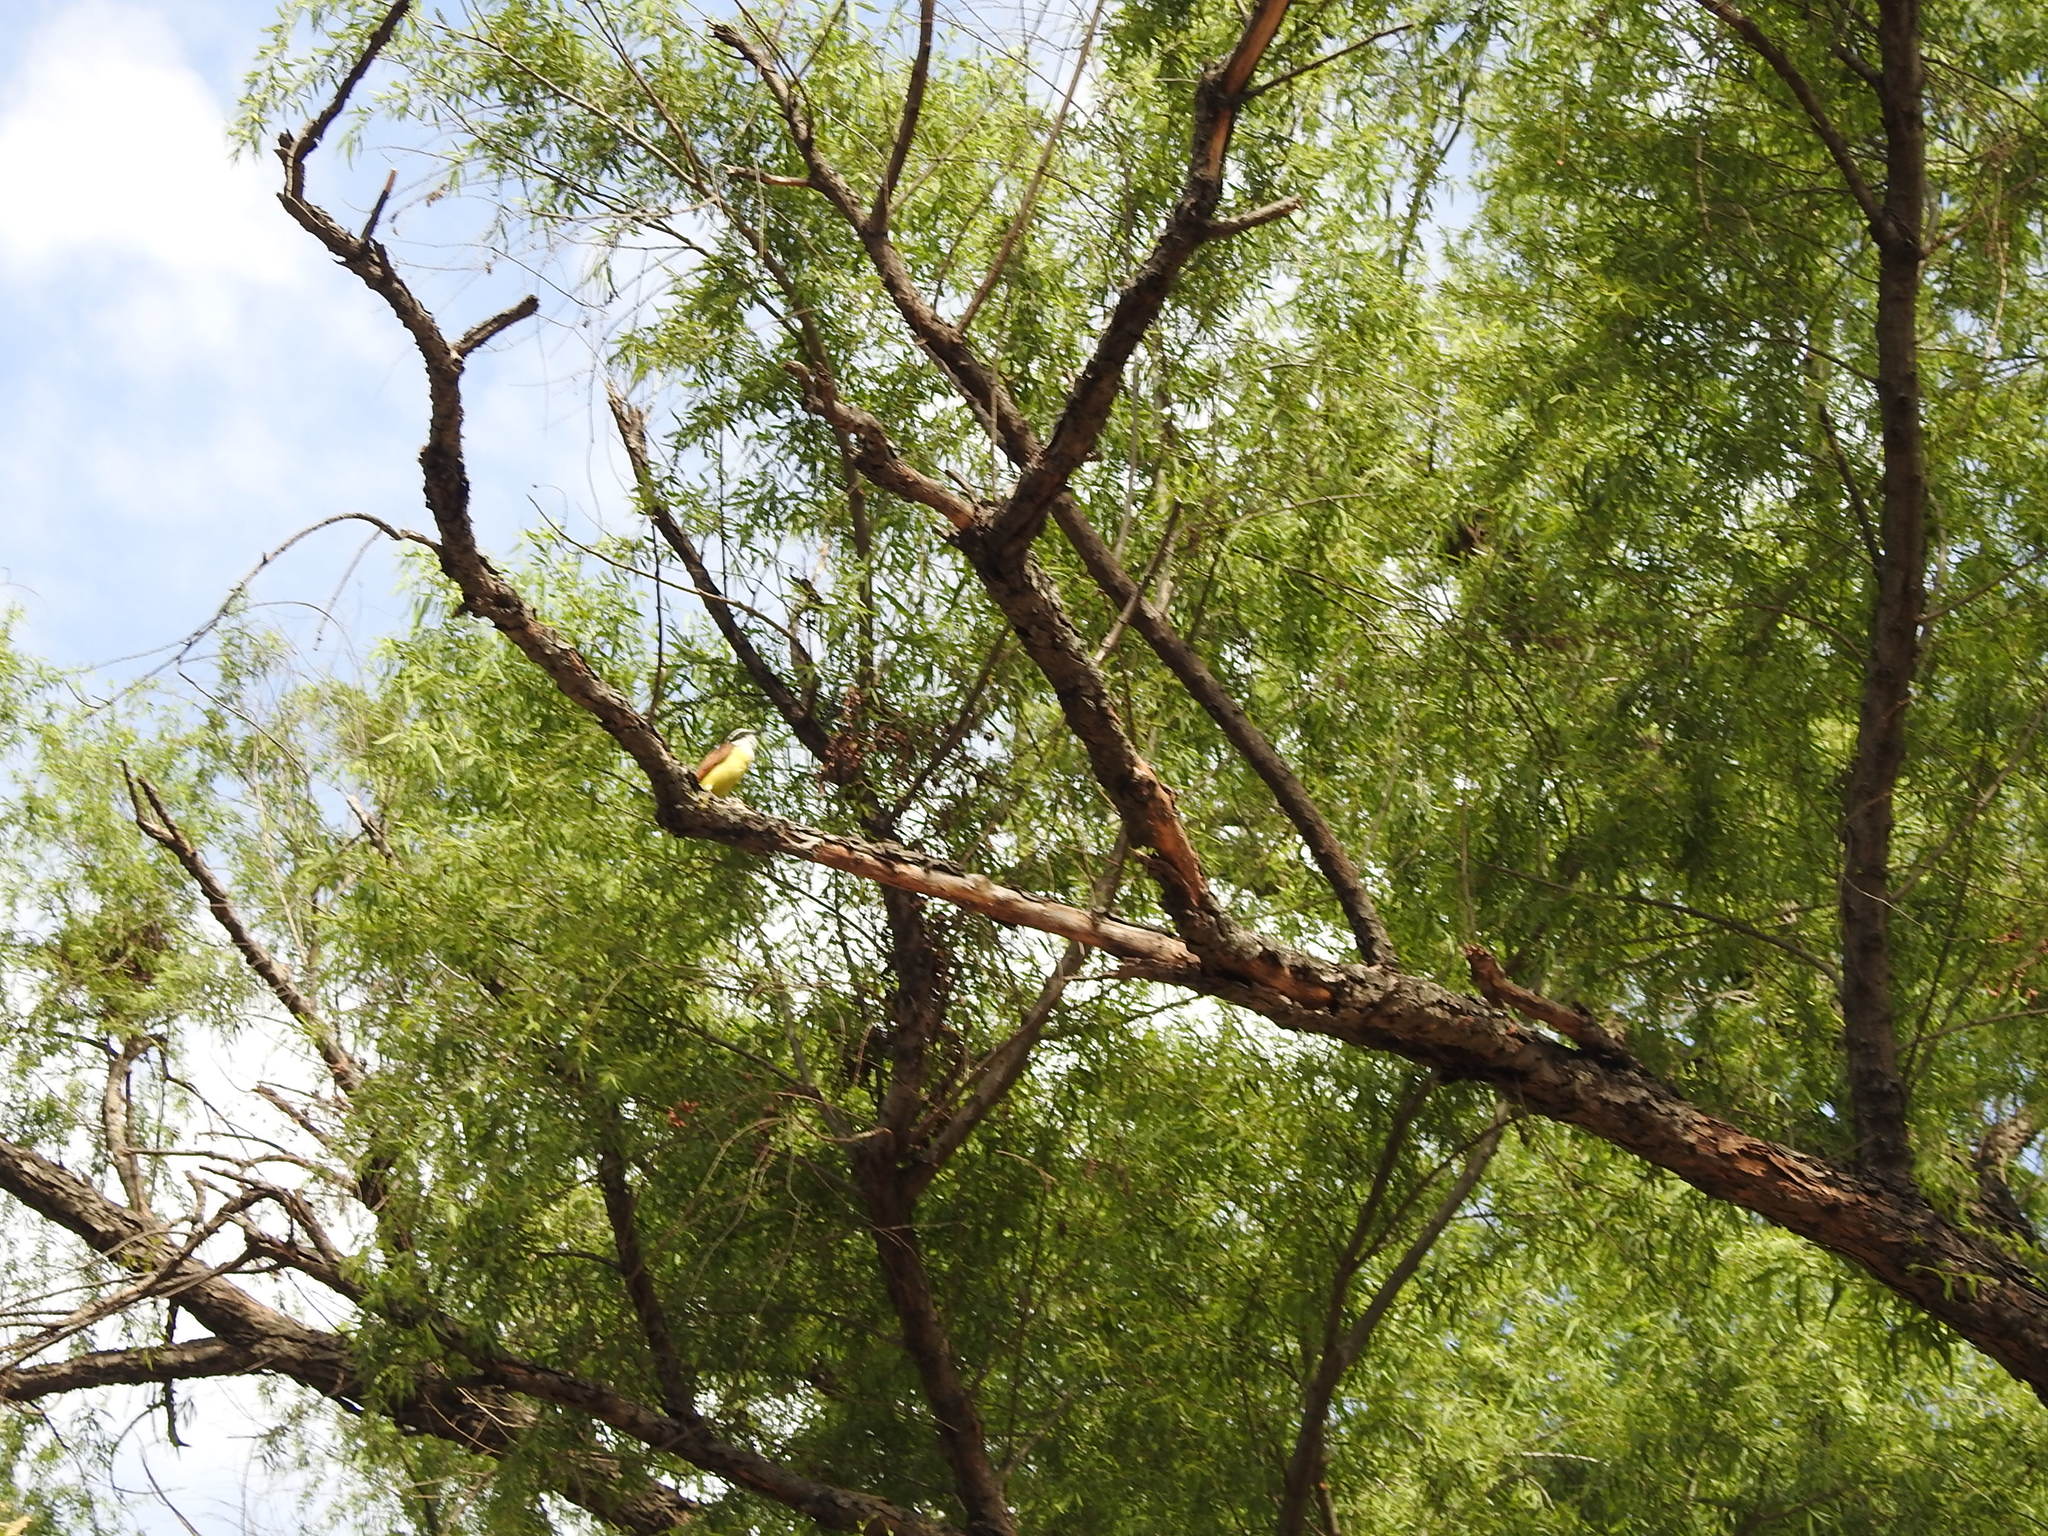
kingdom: Animalia
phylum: Chordata
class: Aves
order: Passeriformes
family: Tyrannidae
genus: Pitangus
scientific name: Pitangus sulphuratus
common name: Great kiskadee
